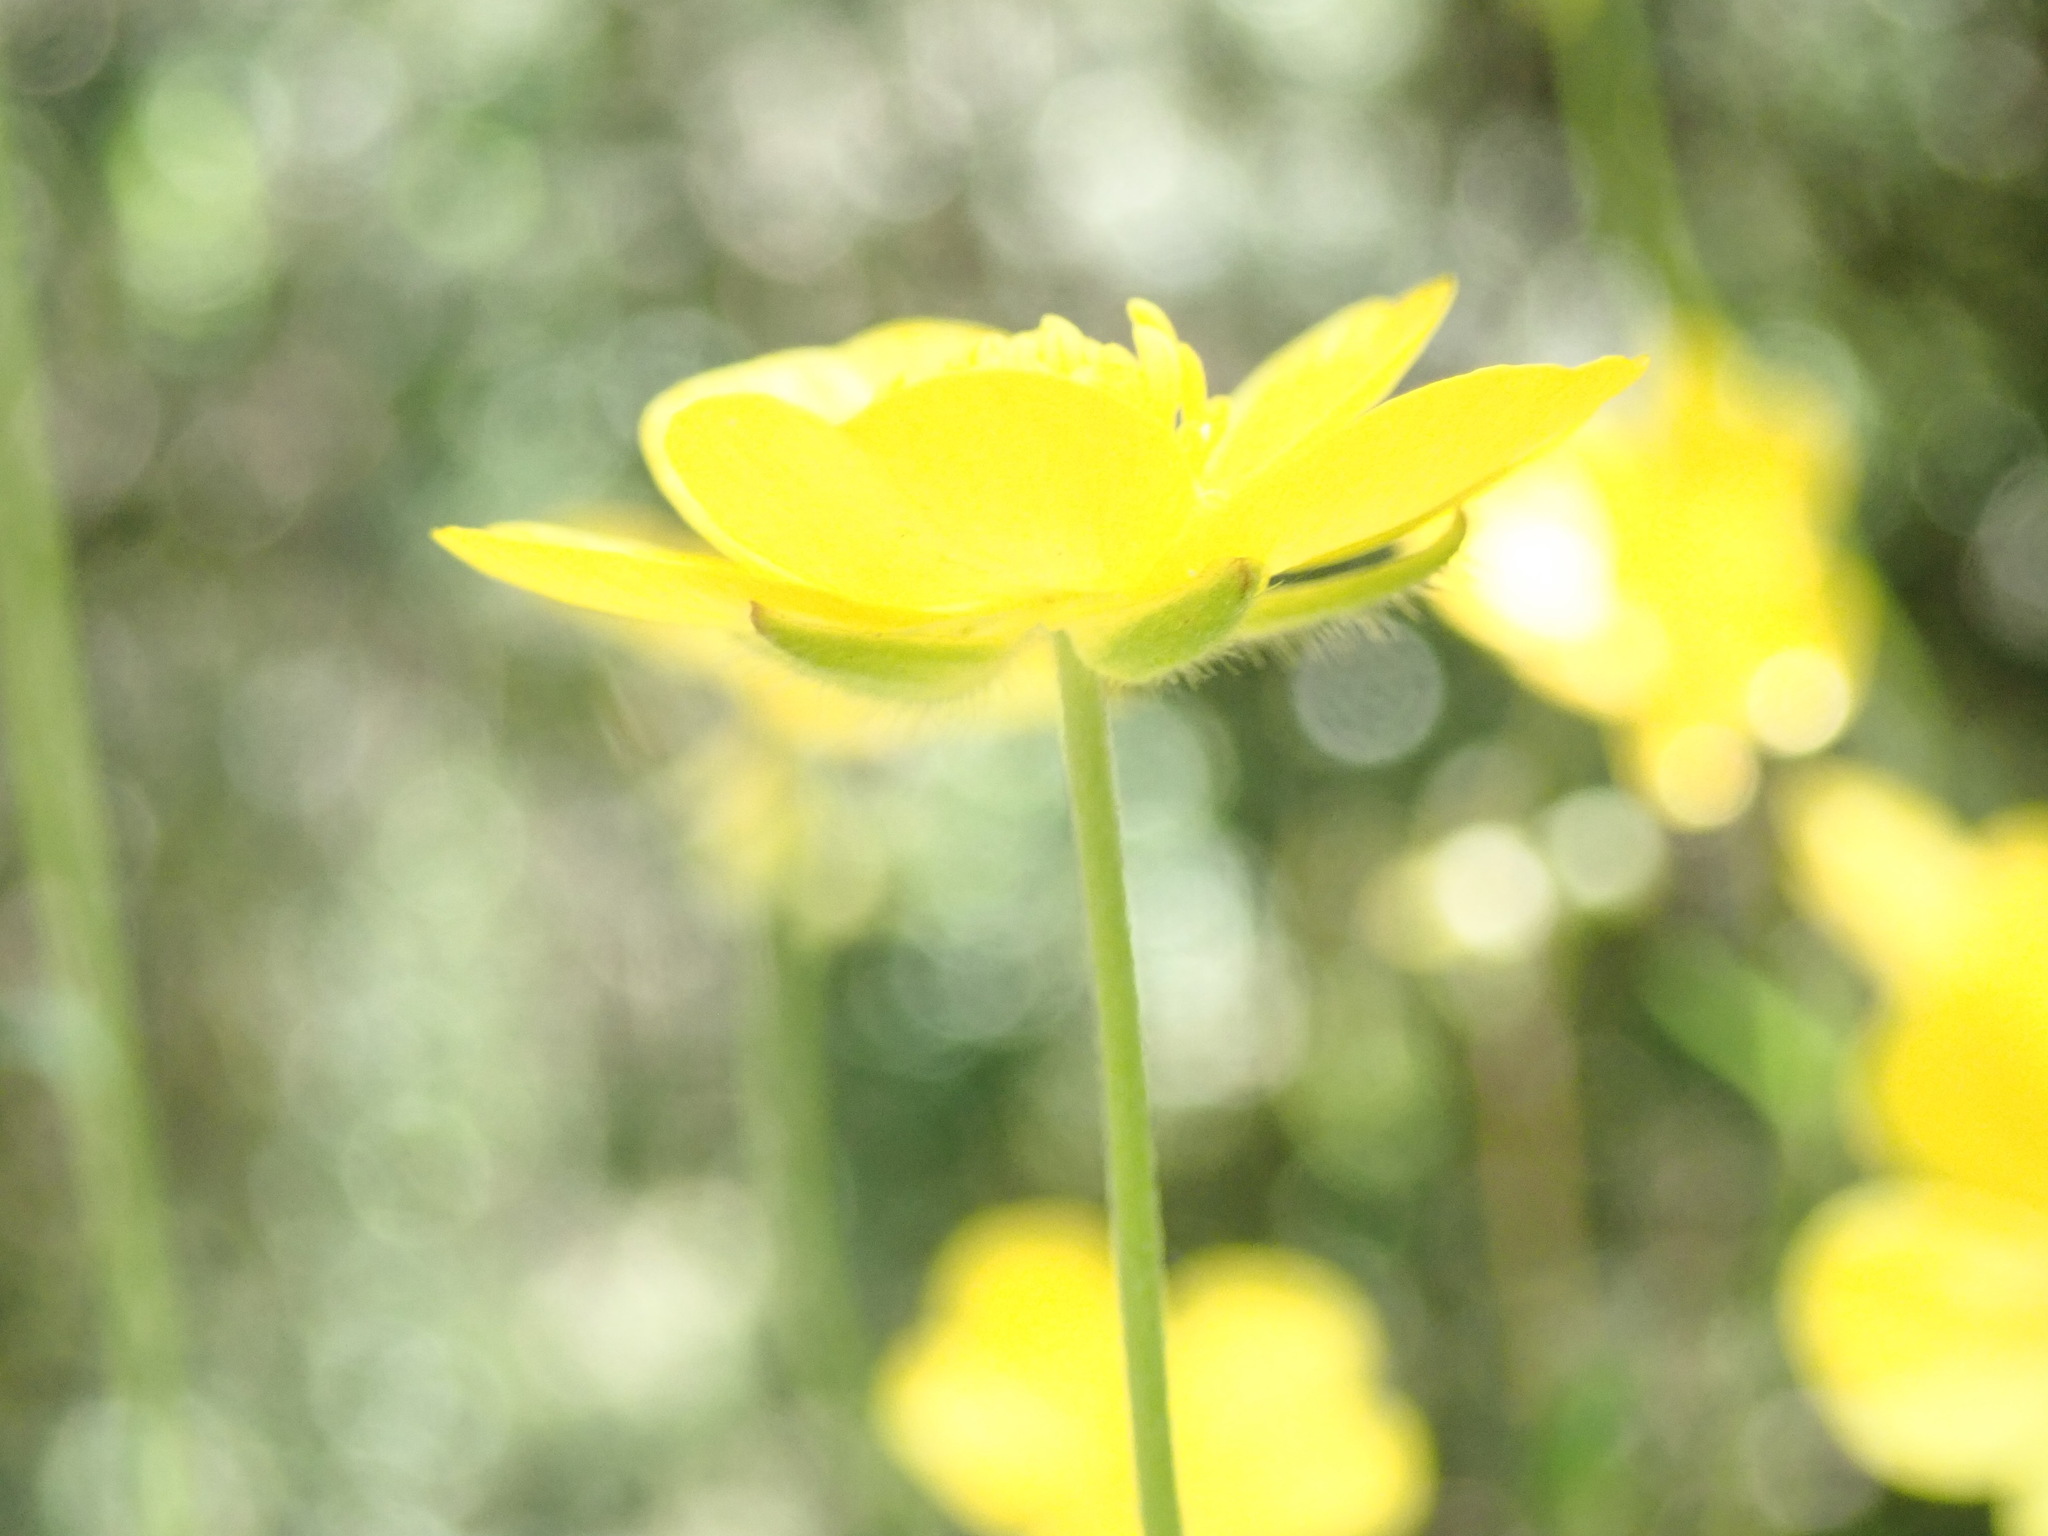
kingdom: Plantae
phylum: Tracheophyta
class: Magnoliopsida
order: Ranunculales
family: Ranunculaceae
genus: Ranunculus
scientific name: Ranunculus nigrescens
